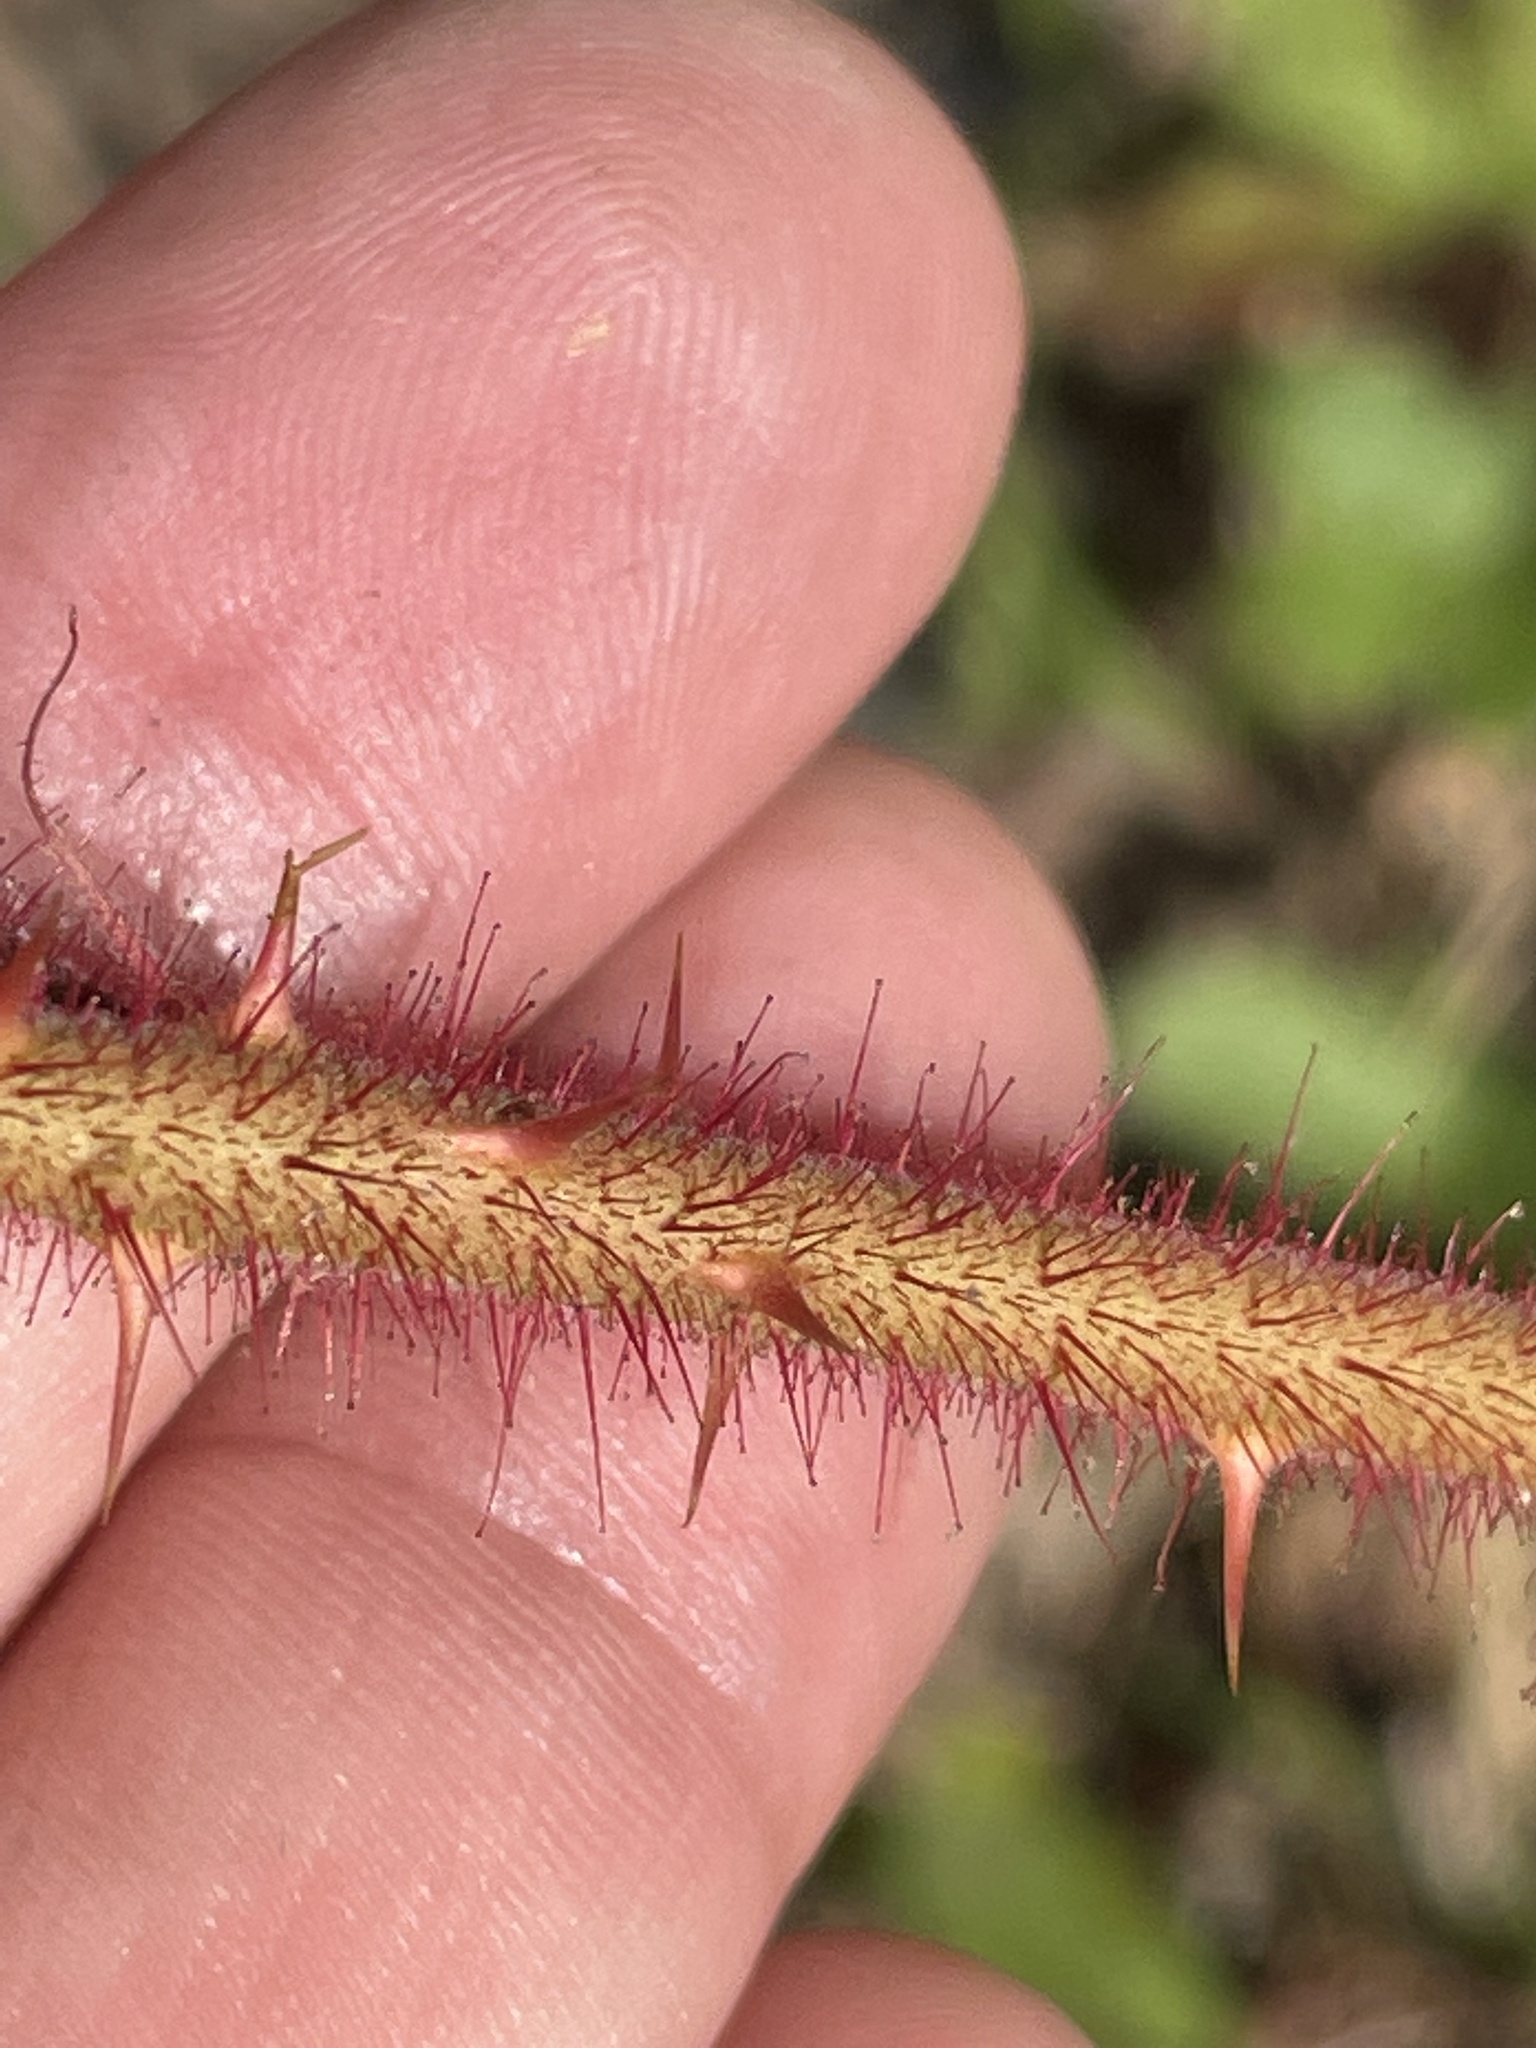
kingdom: Plantae
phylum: Tracheophyta
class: Magnoliopsida
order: Rosales
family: Rosaceae
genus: Rubus
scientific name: Rubus phoenicolasius
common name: Japanese wineberry
